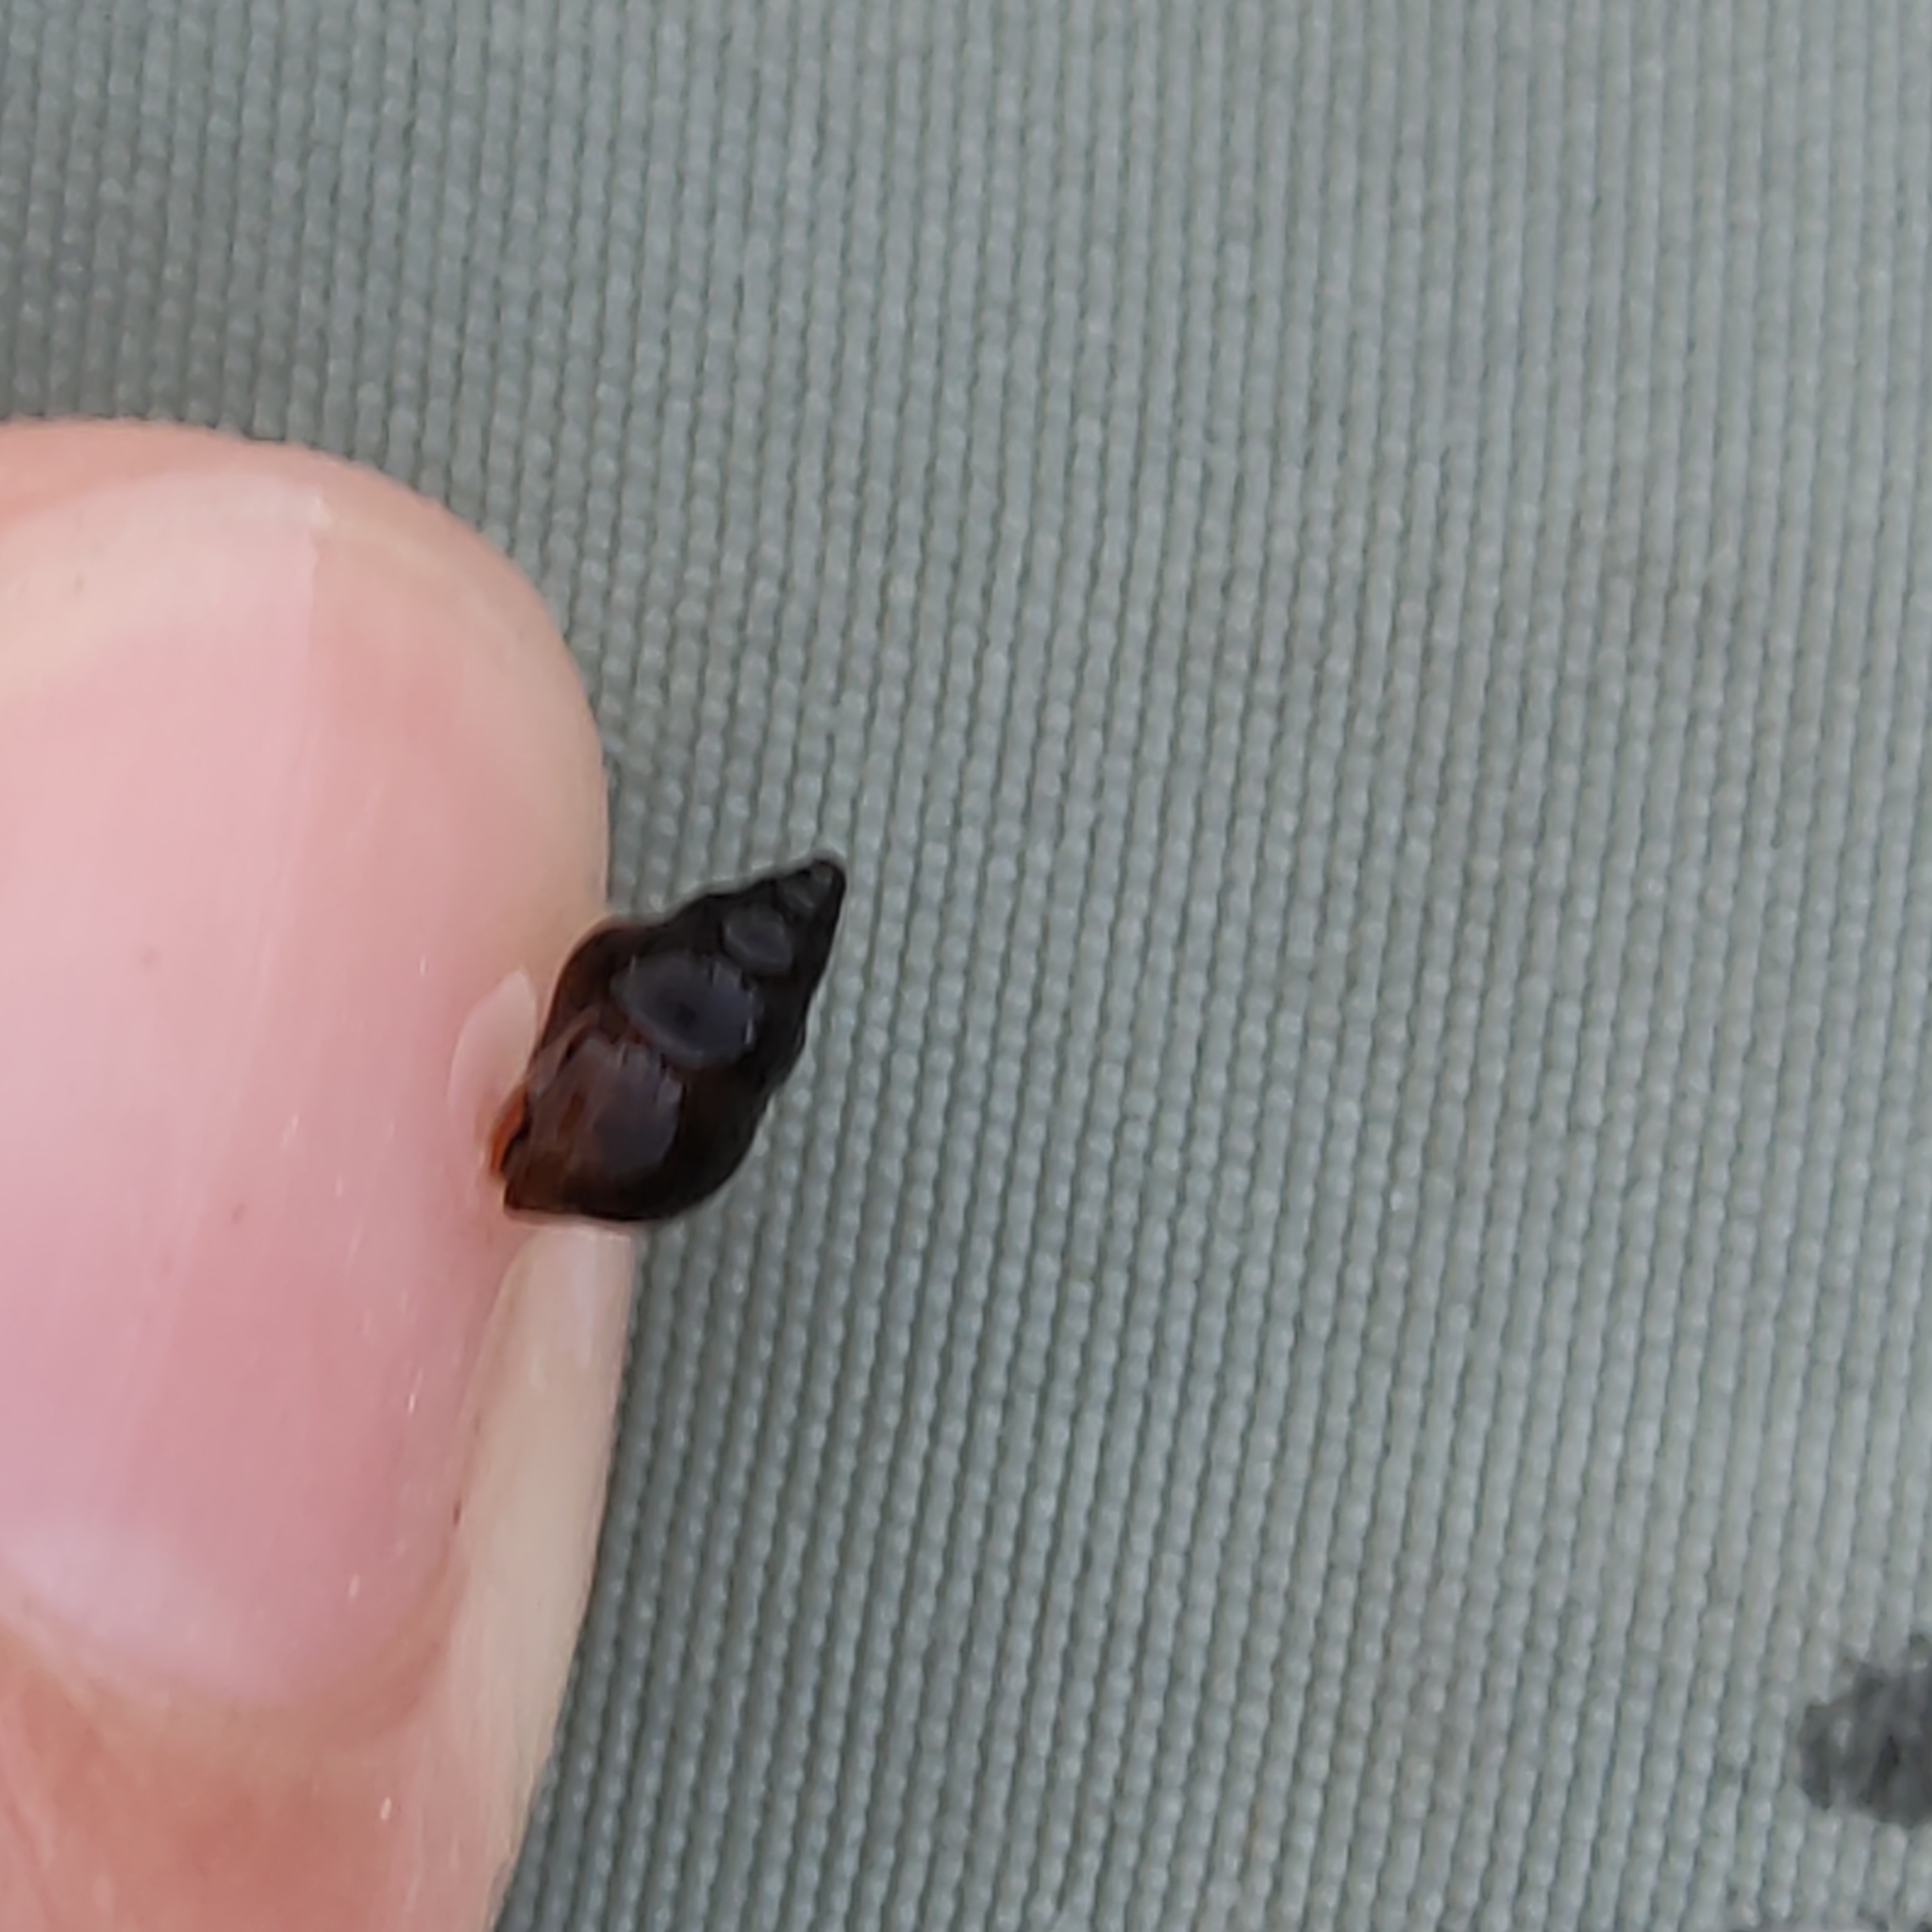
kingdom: Animalia
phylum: Mollusca
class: Gastropoda
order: Littorinimorpha
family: Tateidae
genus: Potamopyrgus
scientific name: Potamopyrgus antipodarum
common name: Jenkins' spire snail
